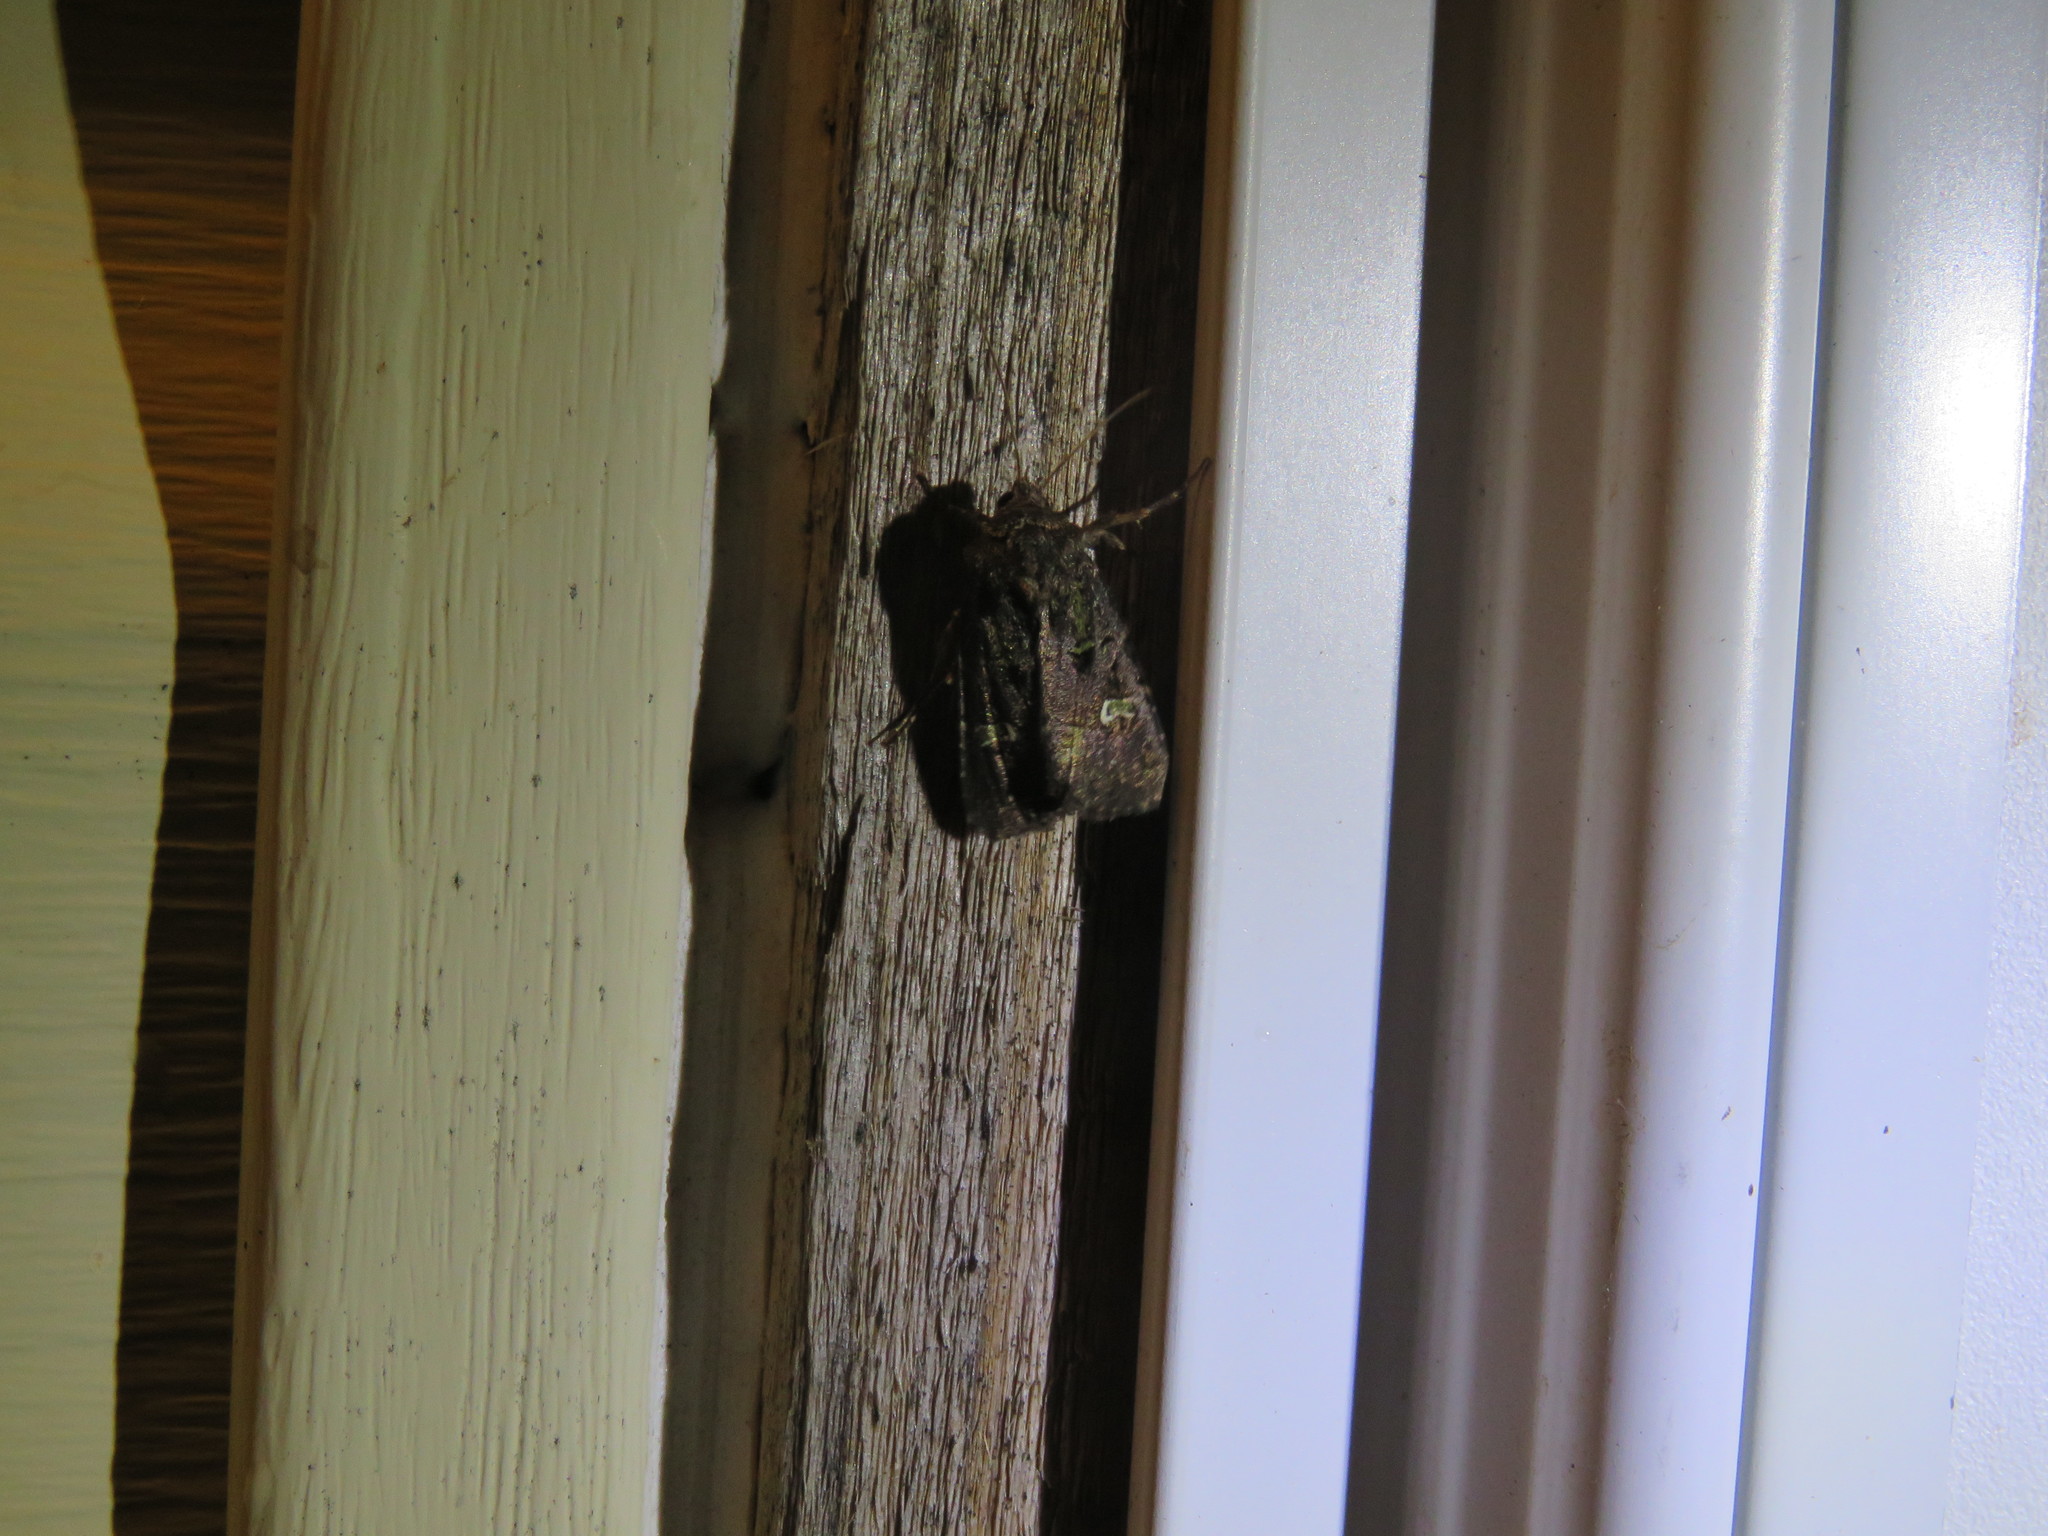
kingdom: Animalia
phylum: Arthropoda
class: Insecta
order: Lepidoptera
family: Noctuidae
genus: Lacinipolia
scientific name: Lacinipolia renigera
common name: Kidney-spotted minor
